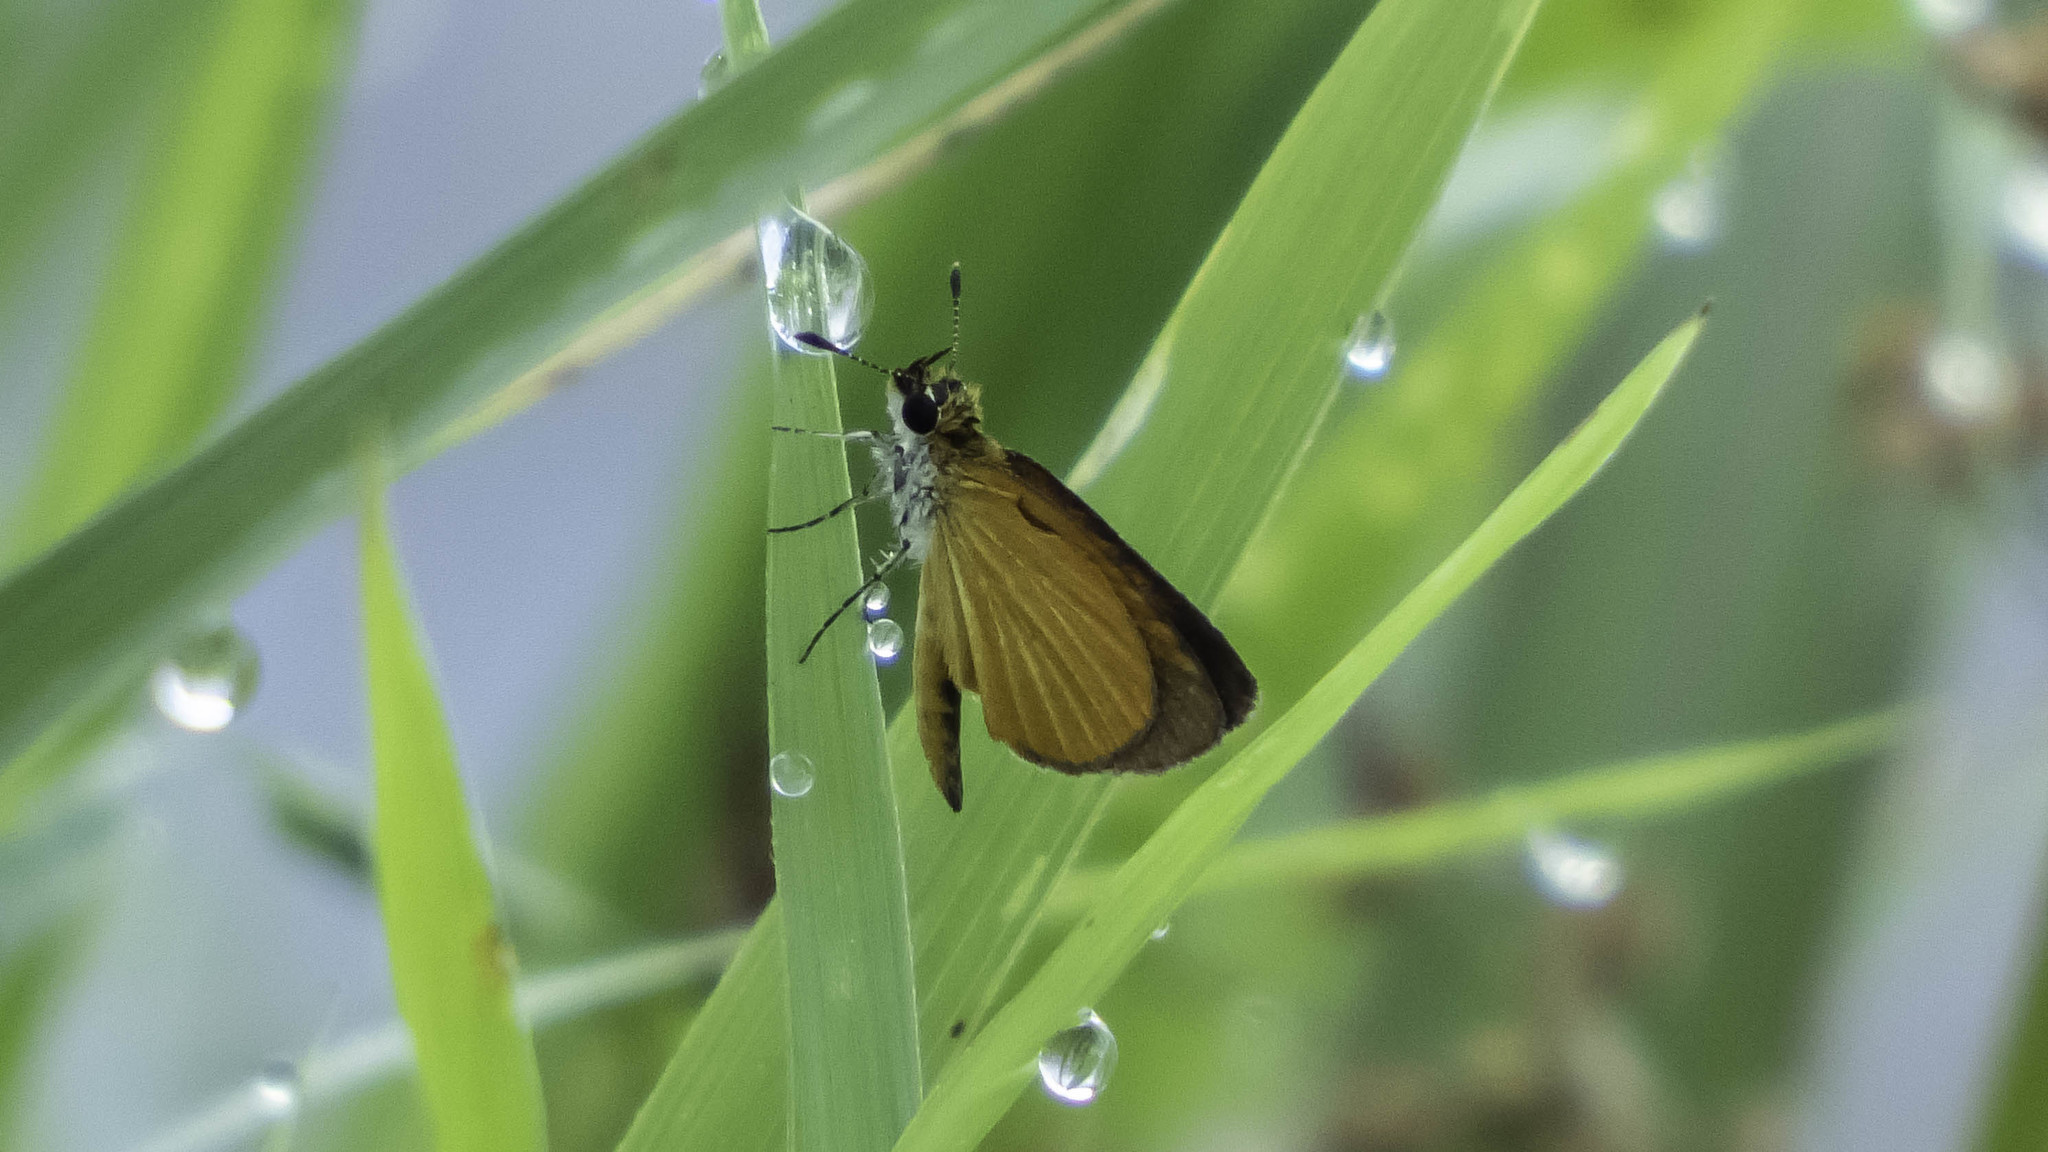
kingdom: Animalia
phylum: Arthropoda
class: Insecta
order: Lepidoptera
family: Hesperiidae
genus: Ancyloxypha
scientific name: Ancyloxypha numitor
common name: Least skipper
